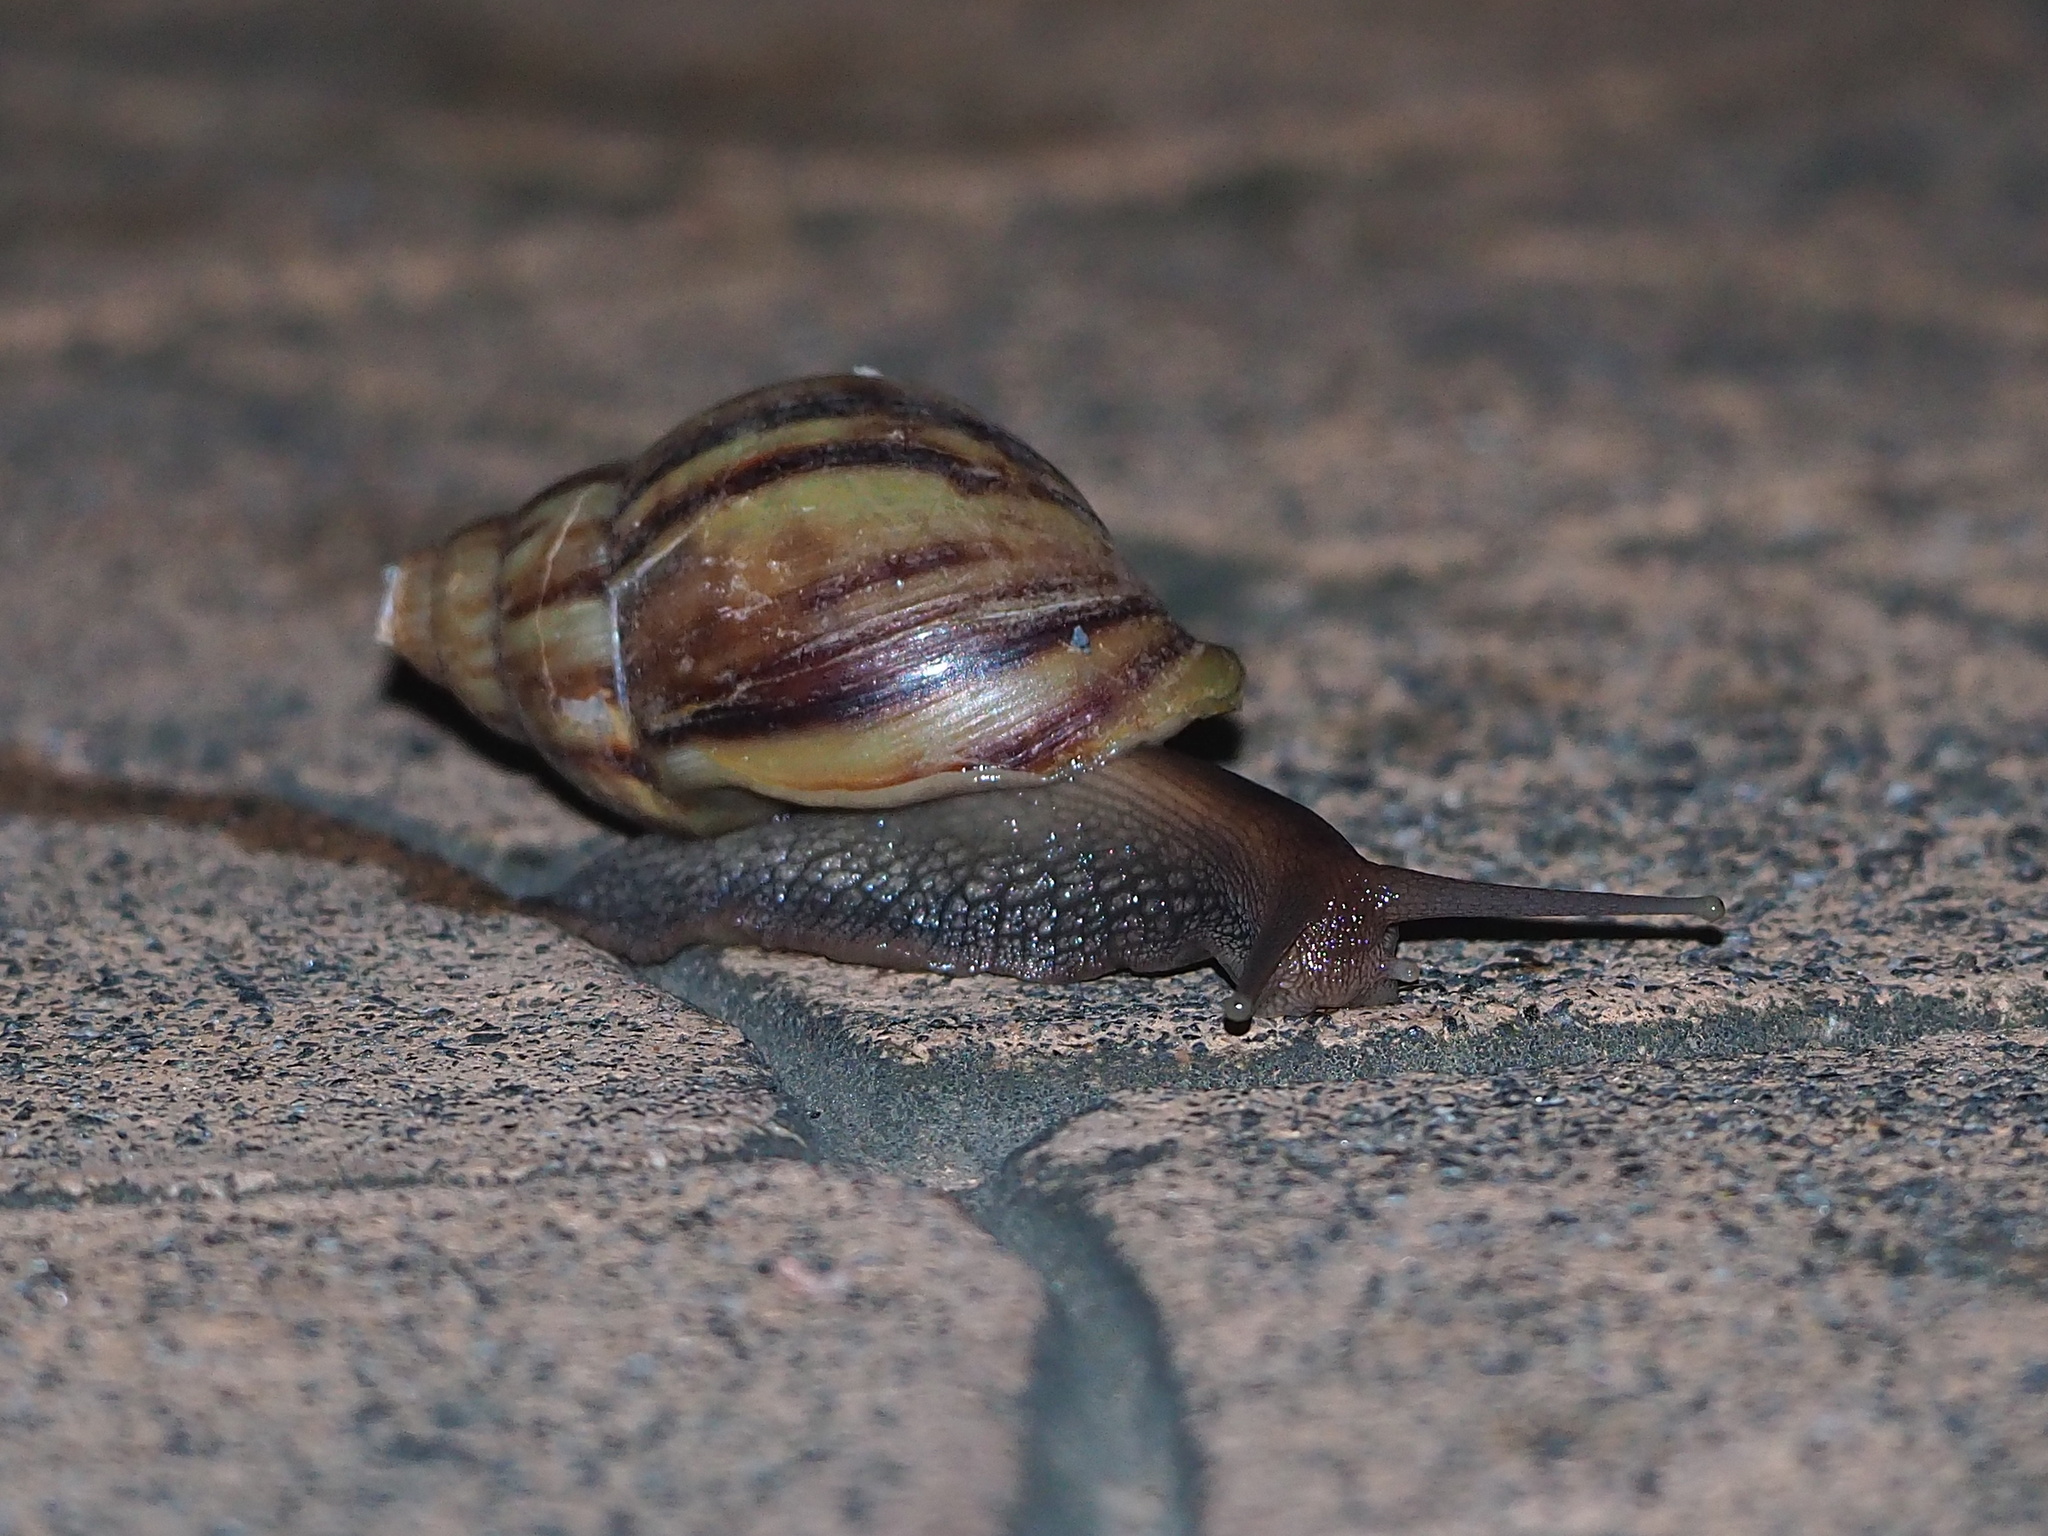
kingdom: Animalia
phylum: Mollusca
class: Gastropoda
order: Stylommatophora
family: Achatinidae
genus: Lissachatina
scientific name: Lissachatina fulica
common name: Giant african snail
